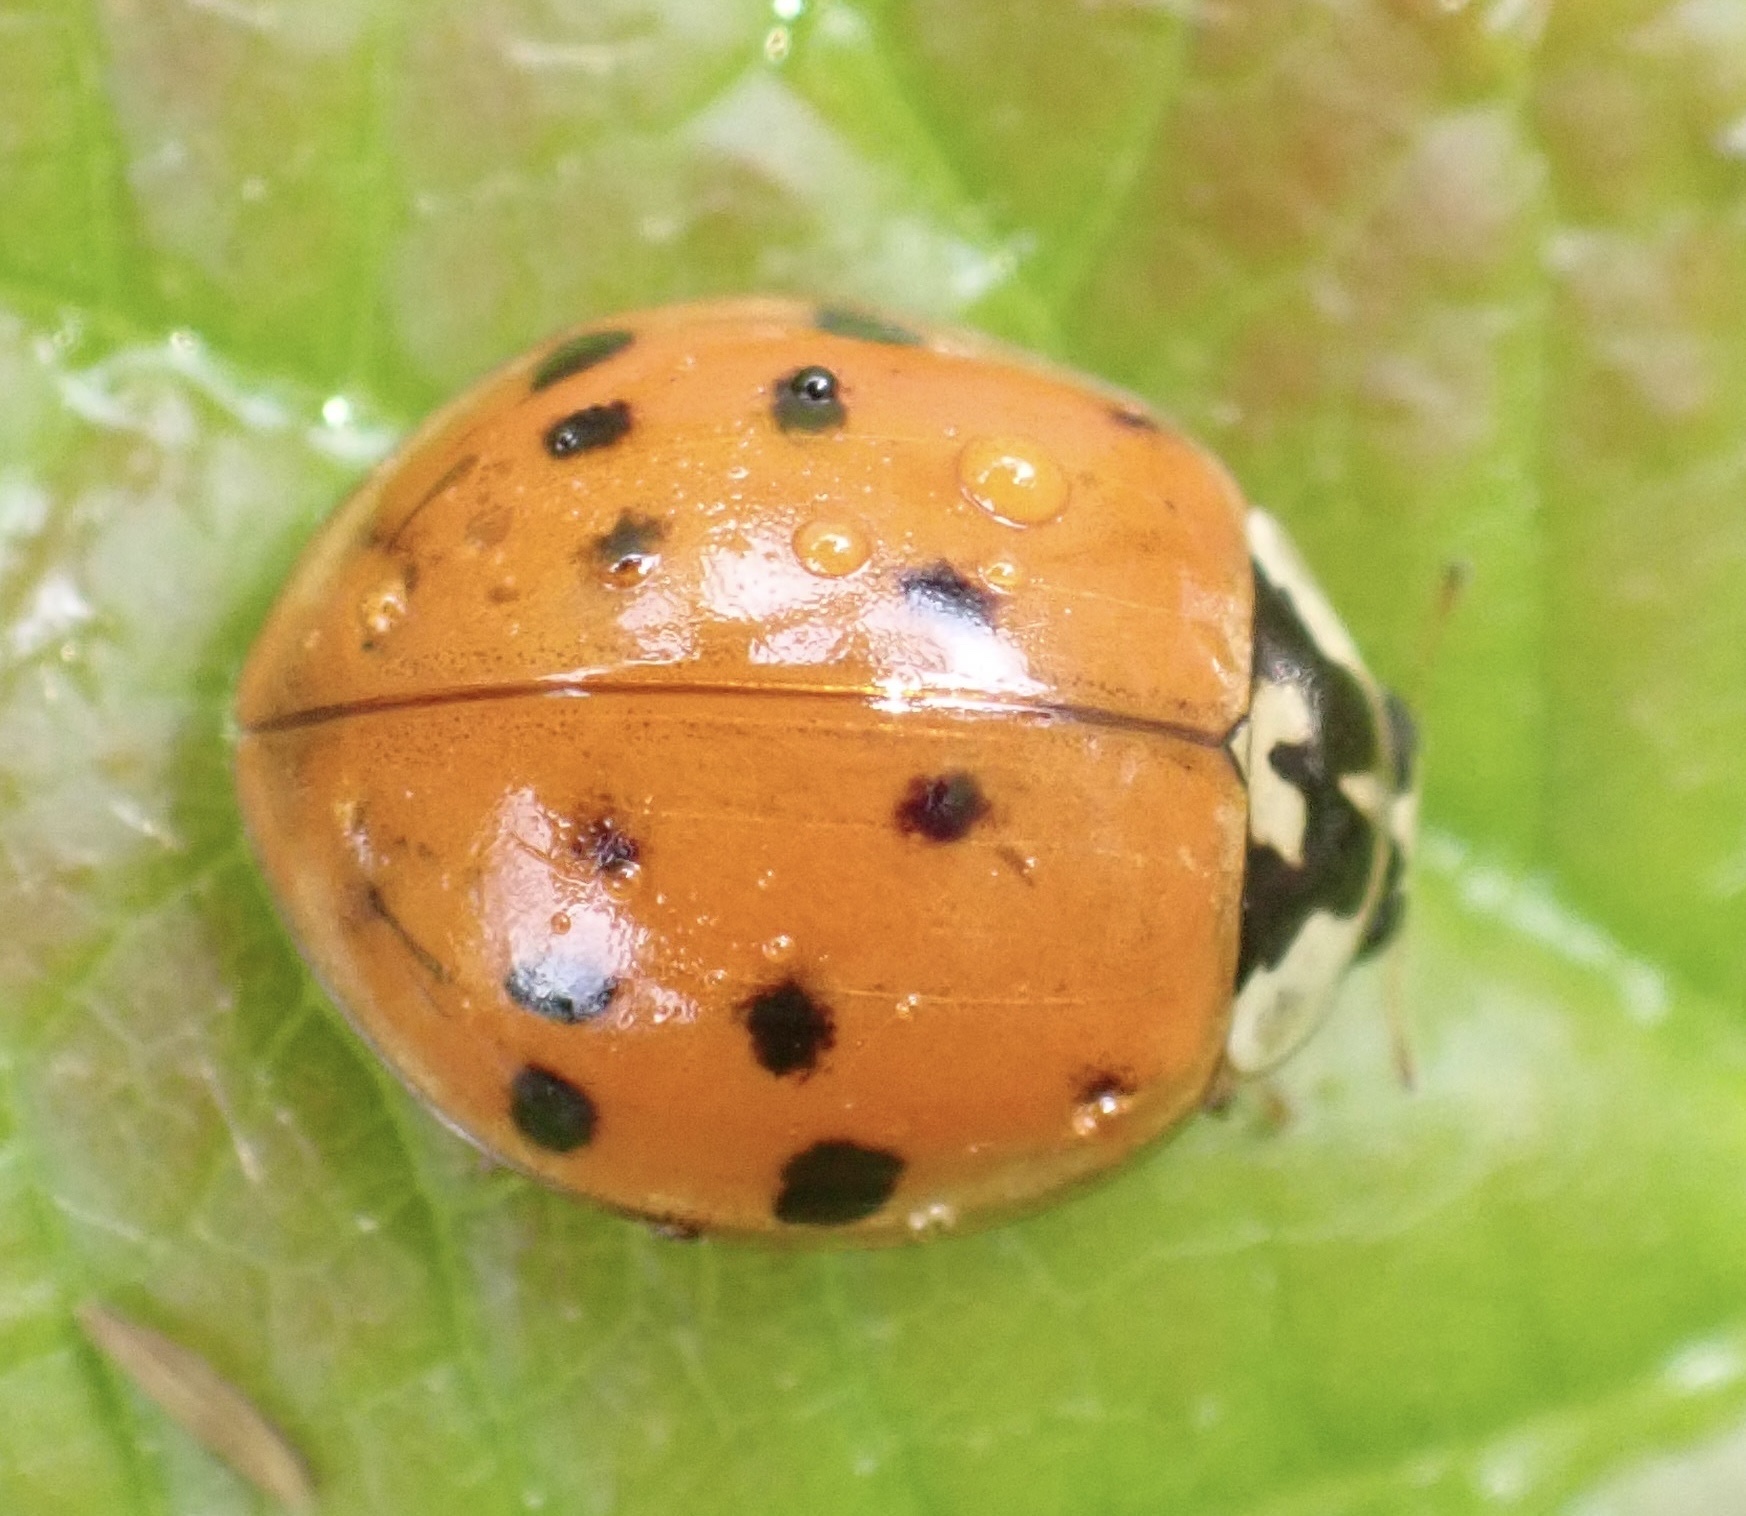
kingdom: Animalia
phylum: Arthropoda
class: Insecta
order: Coleoptera
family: Coccinellidae
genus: Harmonia
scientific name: Harmonia axyridis
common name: Harlequin ladybird
